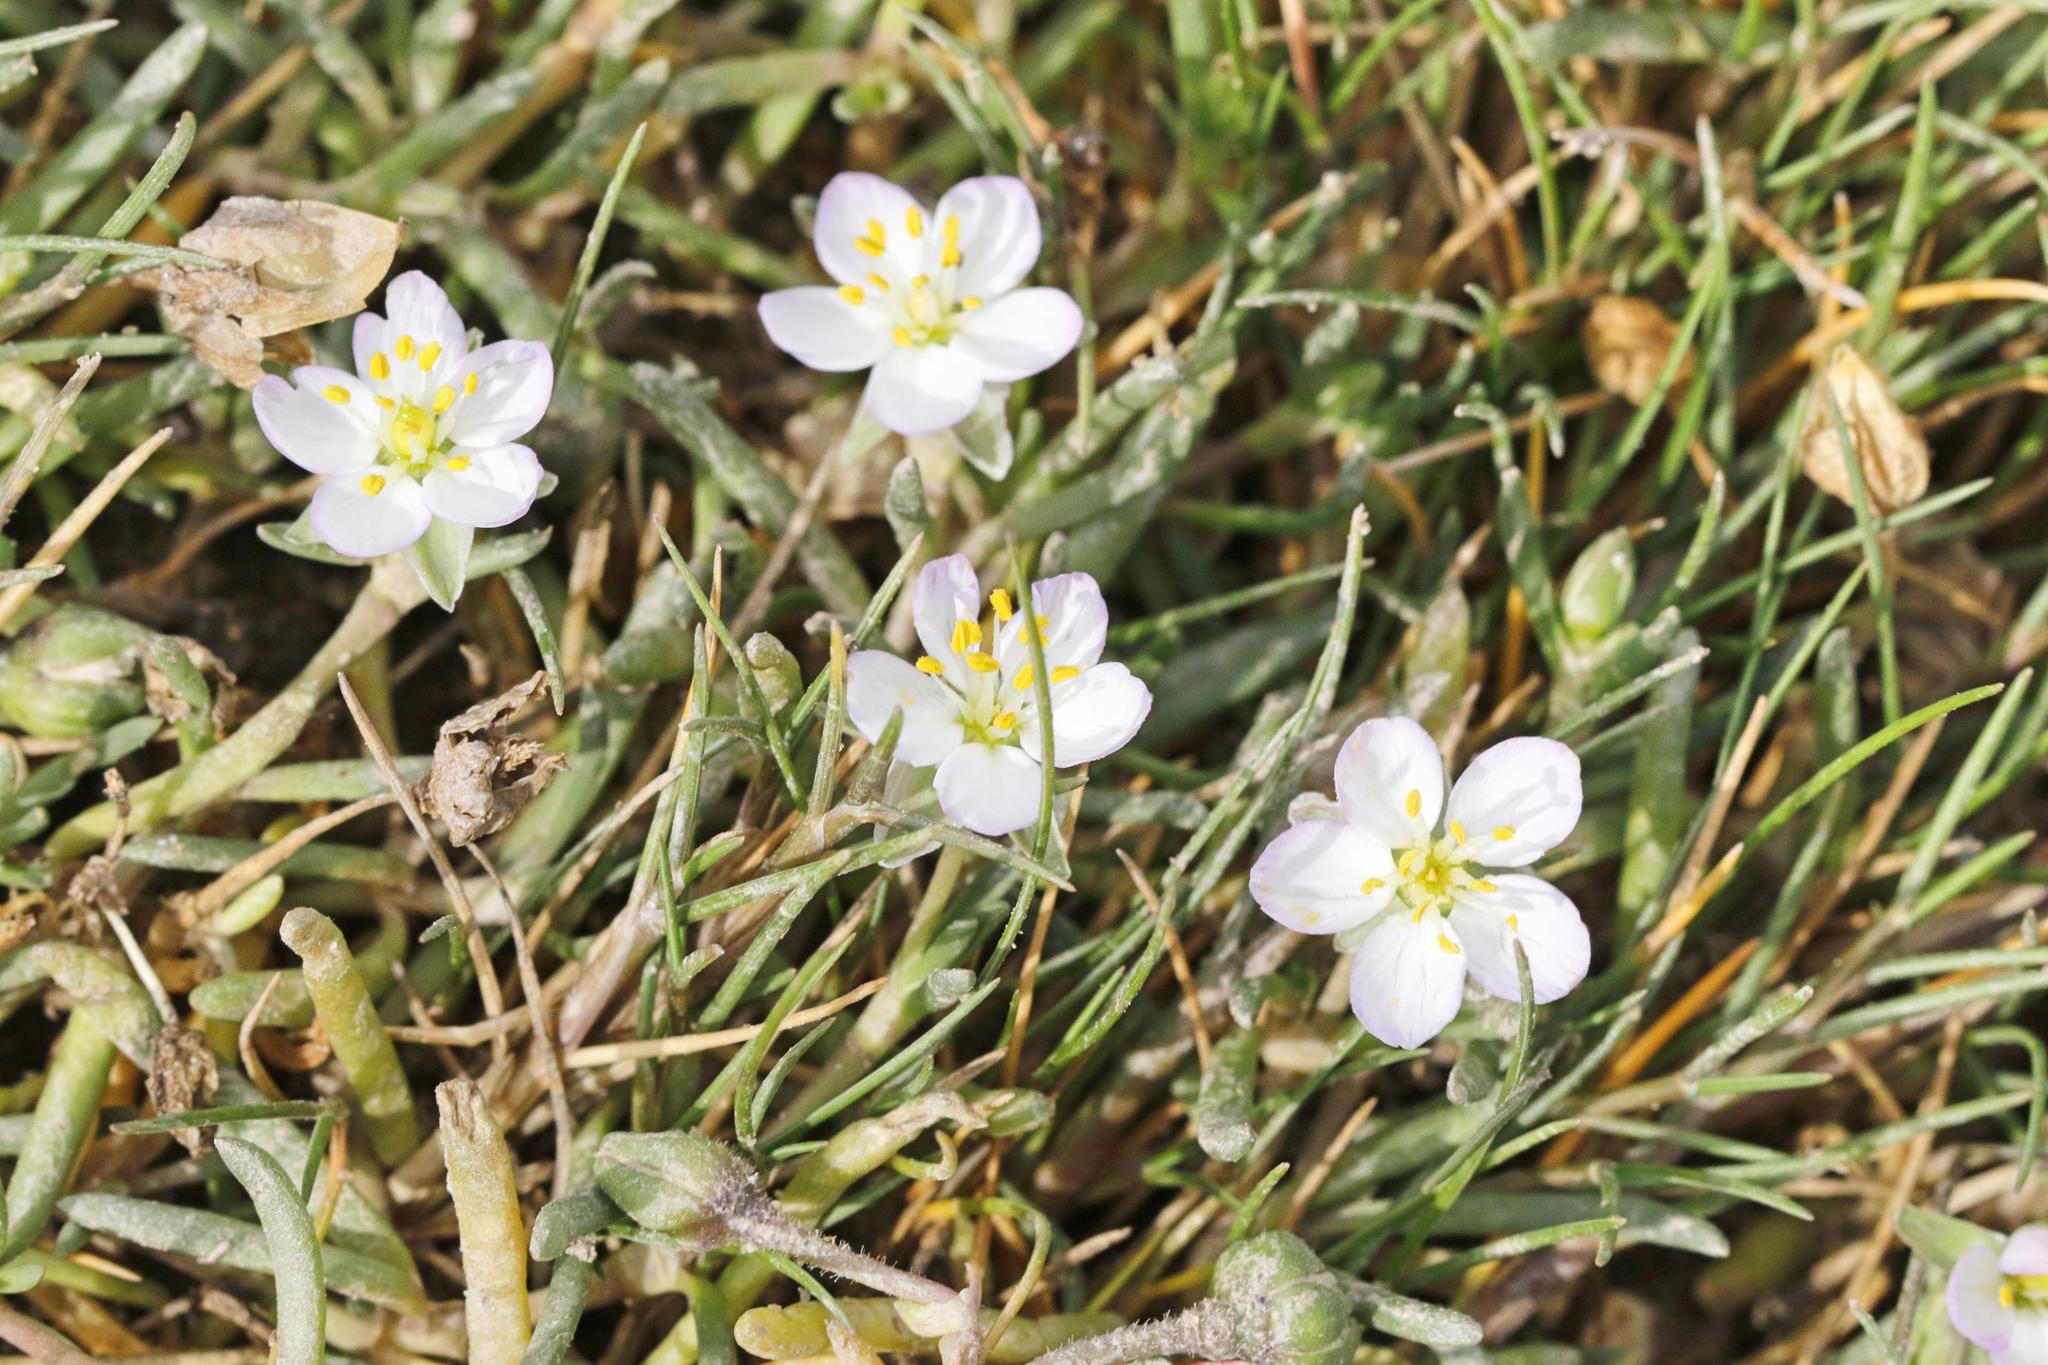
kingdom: Plantae
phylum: Tracheophyta
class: Magnoliopsida
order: Caryophyllales
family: Caryophyllaceae
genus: Spergularia
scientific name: Spergularia media
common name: Greater sea-spurrey
